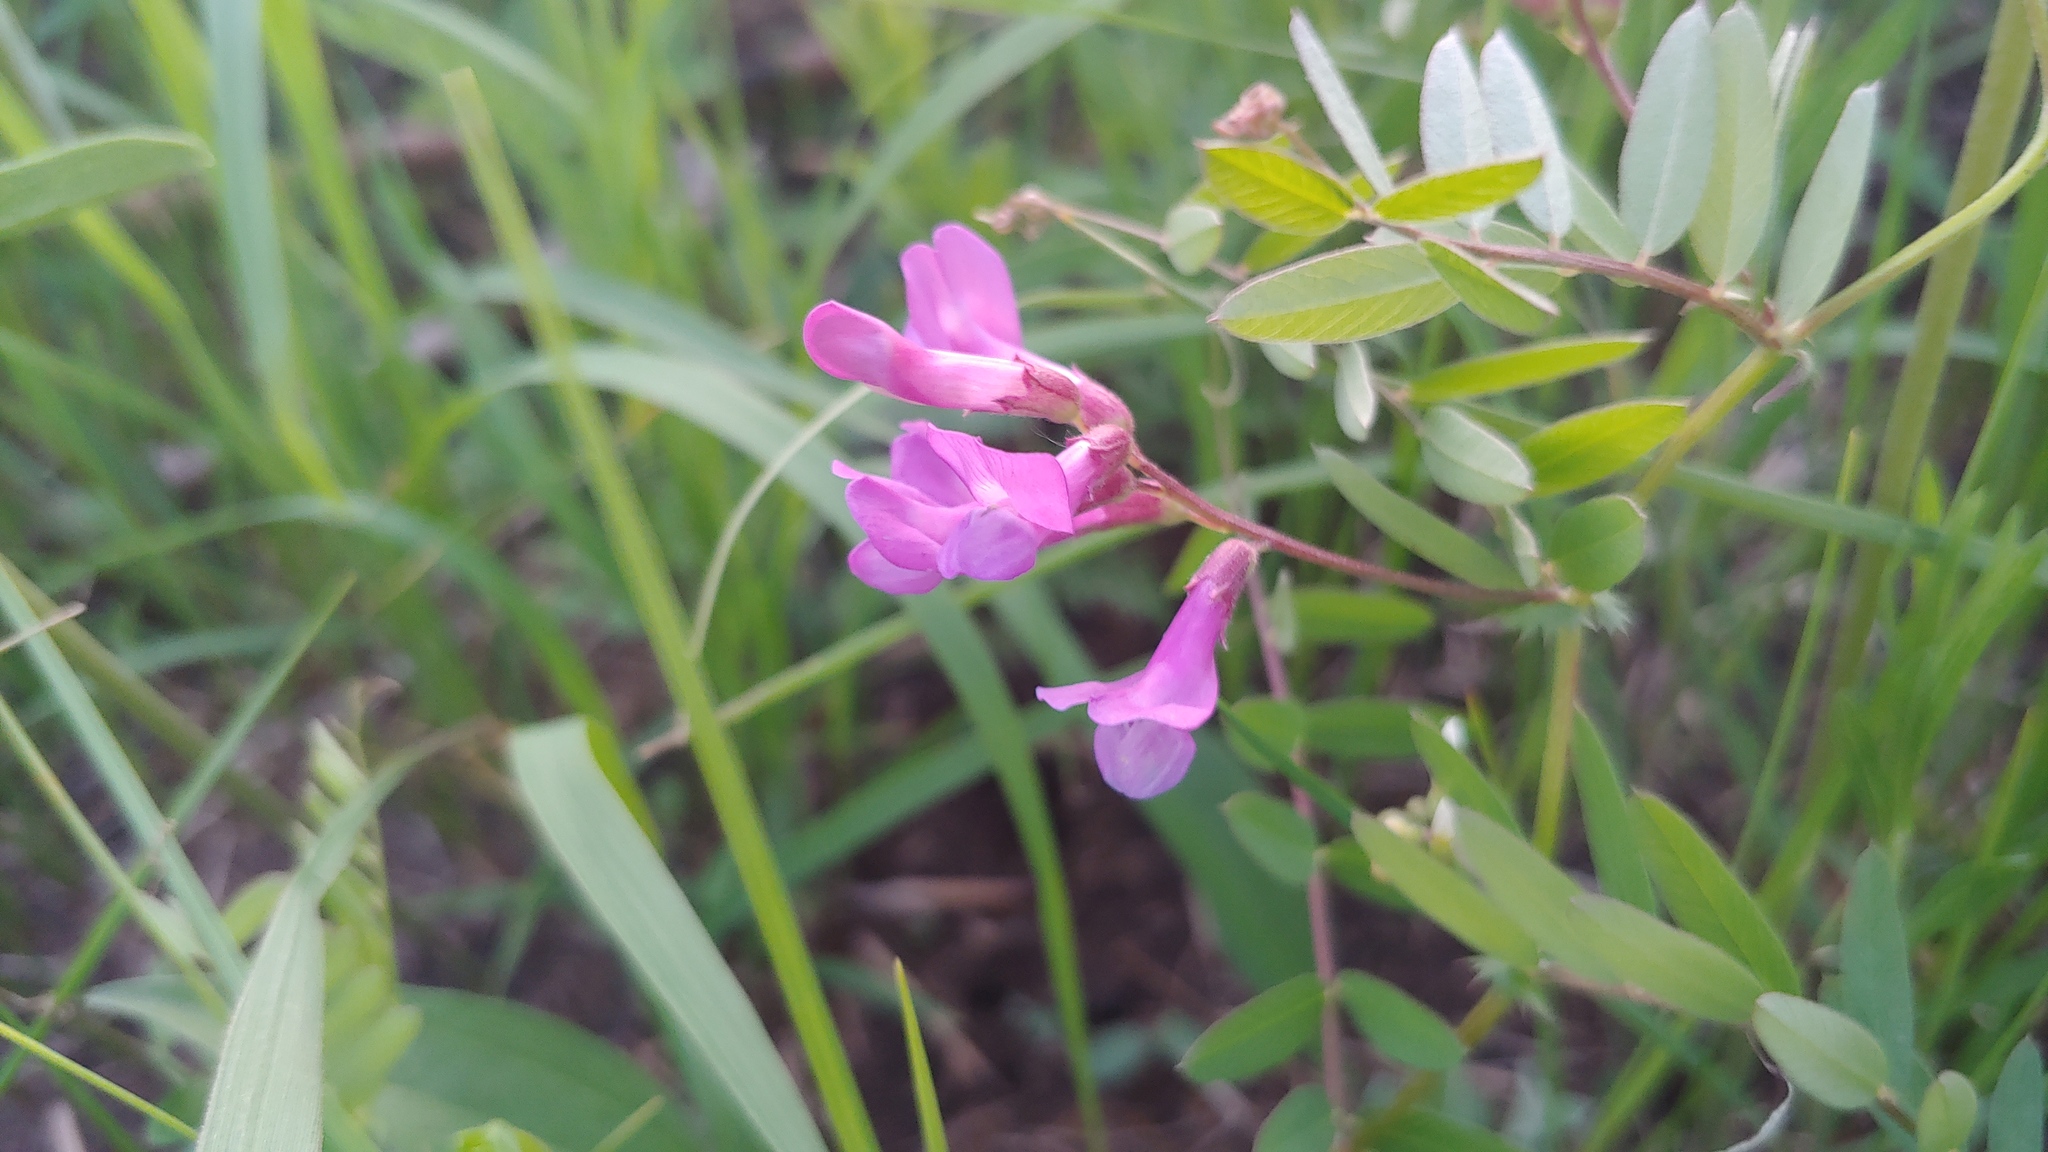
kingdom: Plantae
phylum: Tracheophyta
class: Magnoliopsida
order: Fabales
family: Fabaceae
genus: Vicia
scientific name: Vicia americana
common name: American vetch
